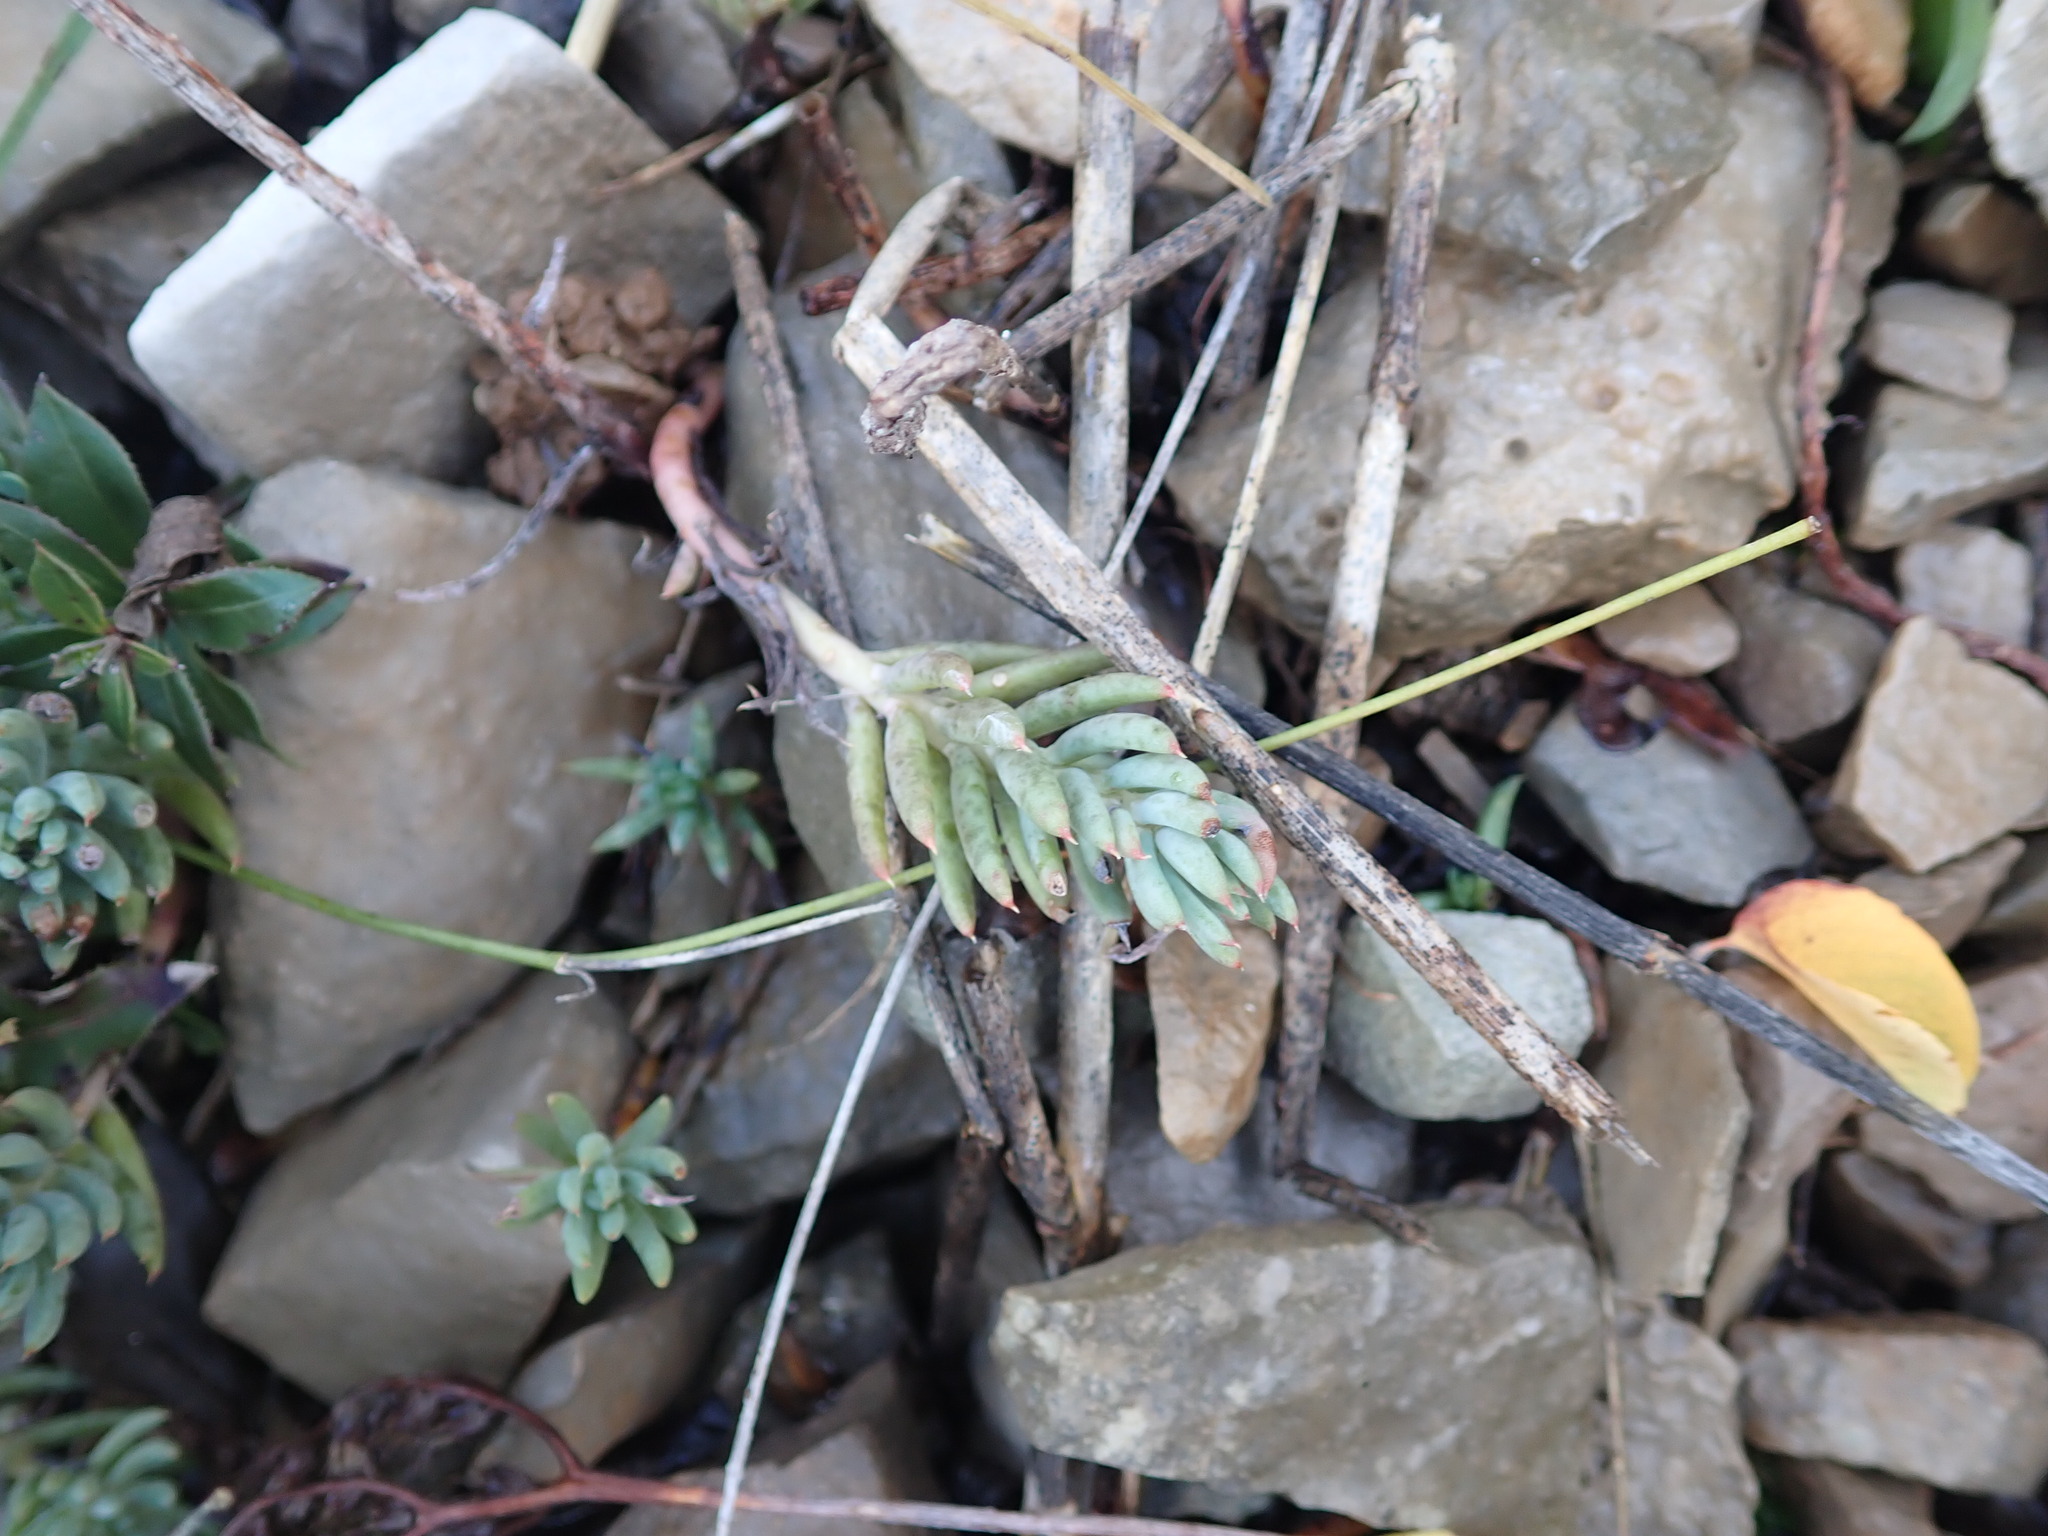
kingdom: Plantae
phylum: Tracheophyta
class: Magnoliopsida
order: Saxifragales
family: Crassulaceae
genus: Petrosedum
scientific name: Petrosedum sediforme
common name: Pale stonecrop
